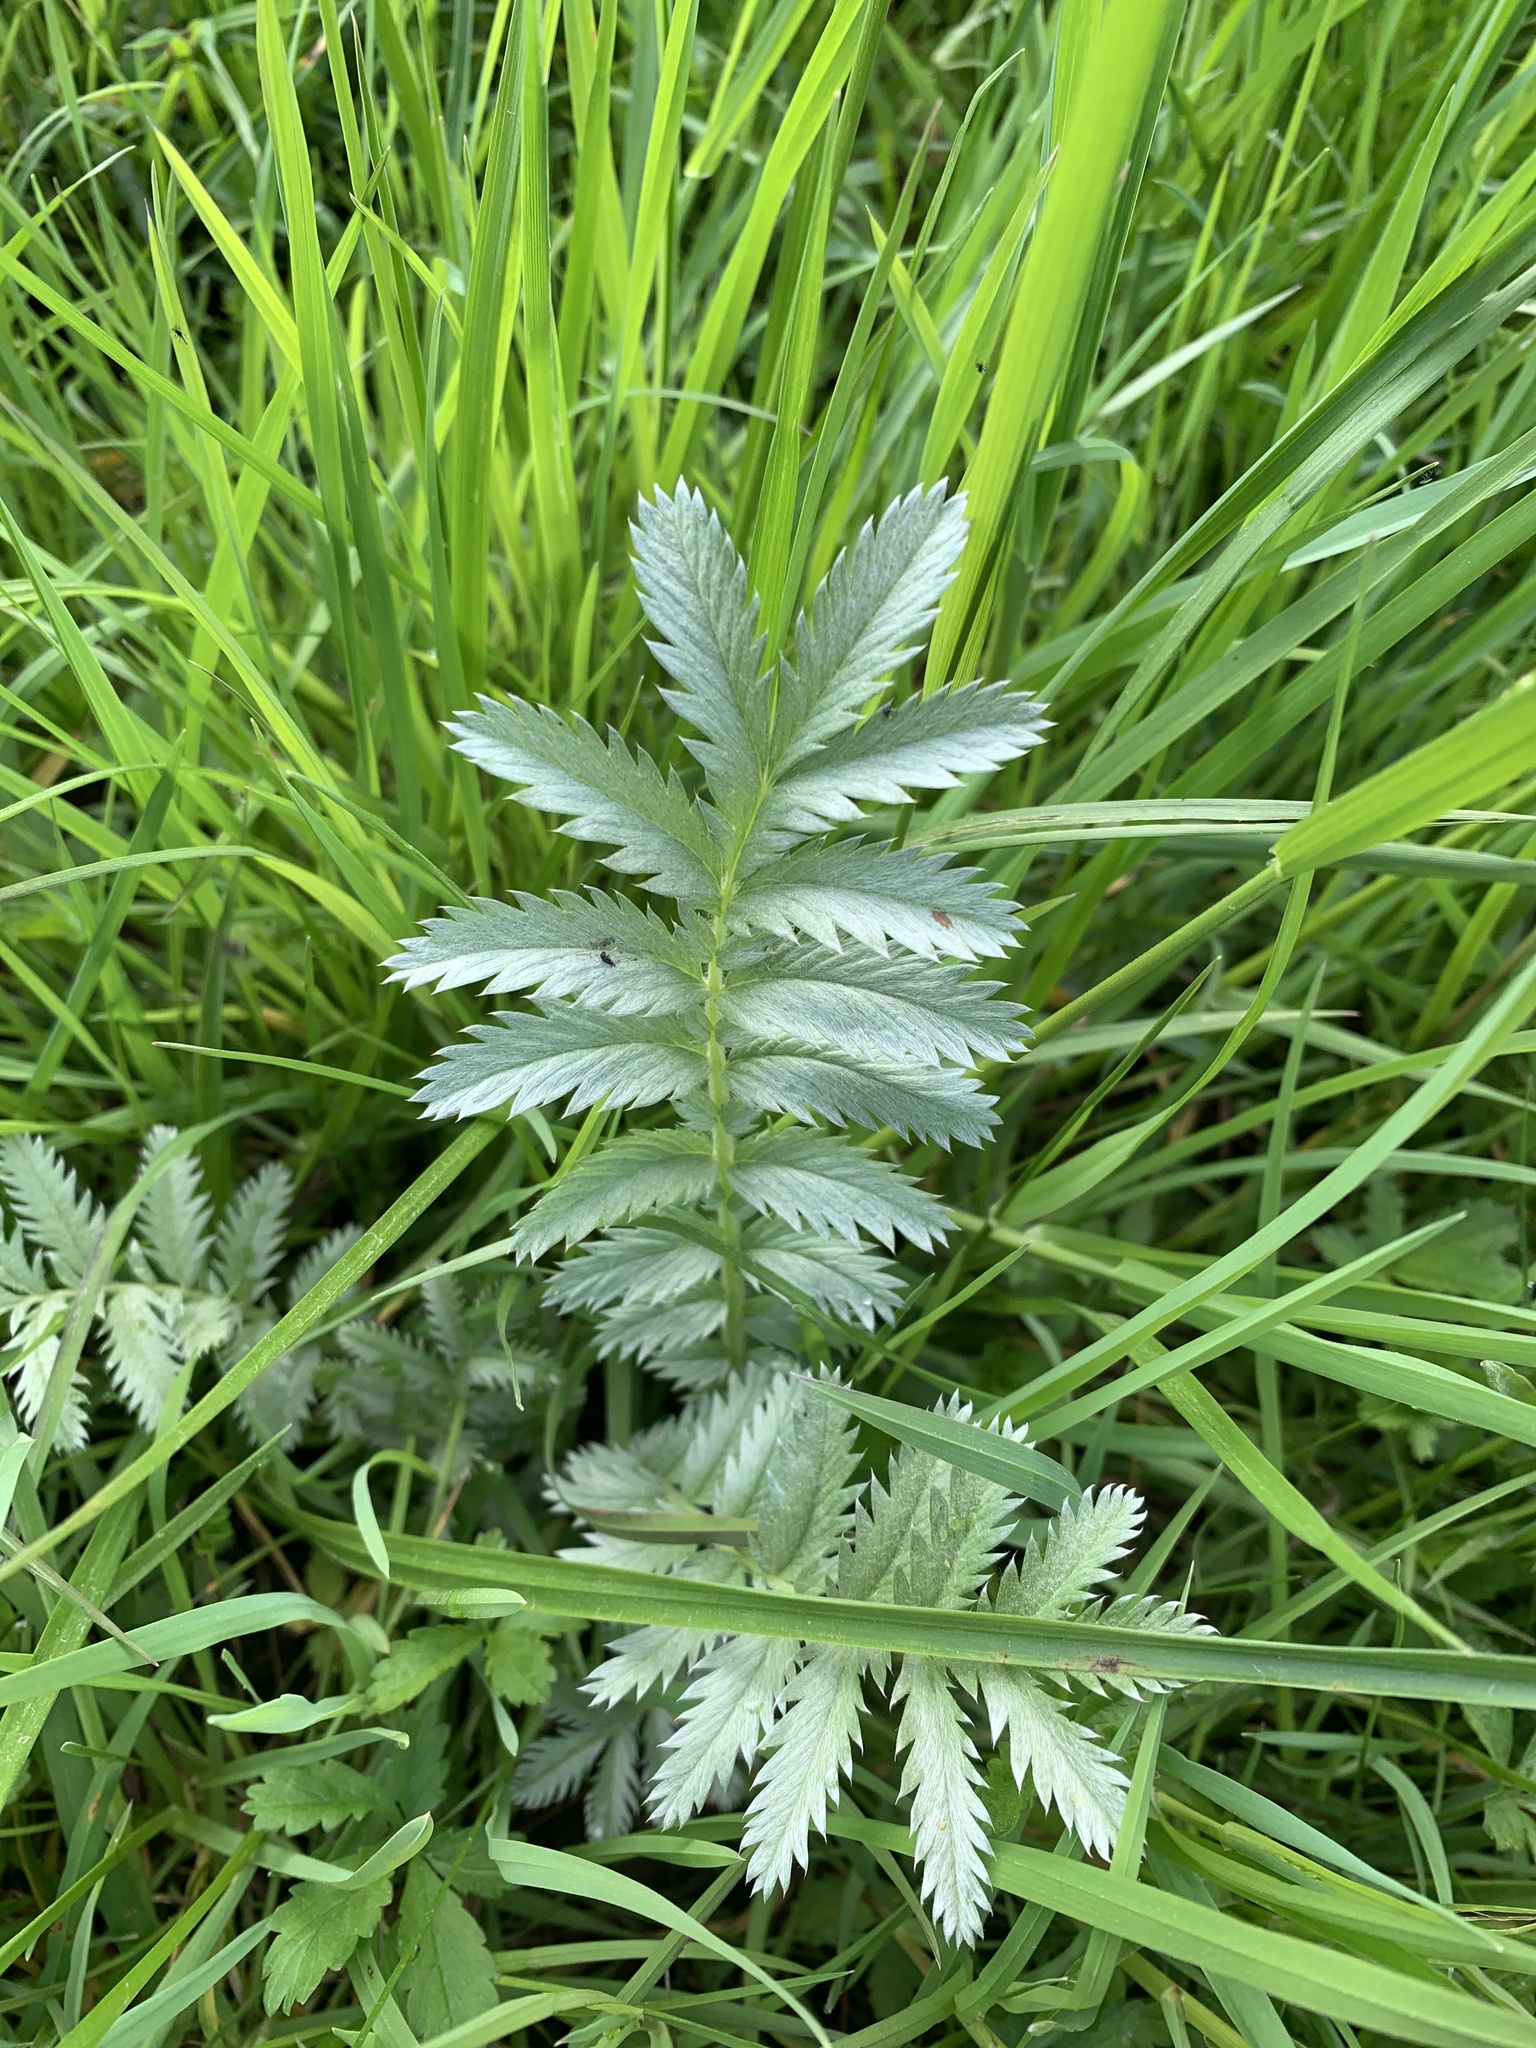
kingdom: Plantae
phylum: Tracheophyta
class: Magnoliopsida
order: Rosales
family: Rosaceae
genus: Argentina
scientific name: Argentina anserina
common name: Common silverweed
